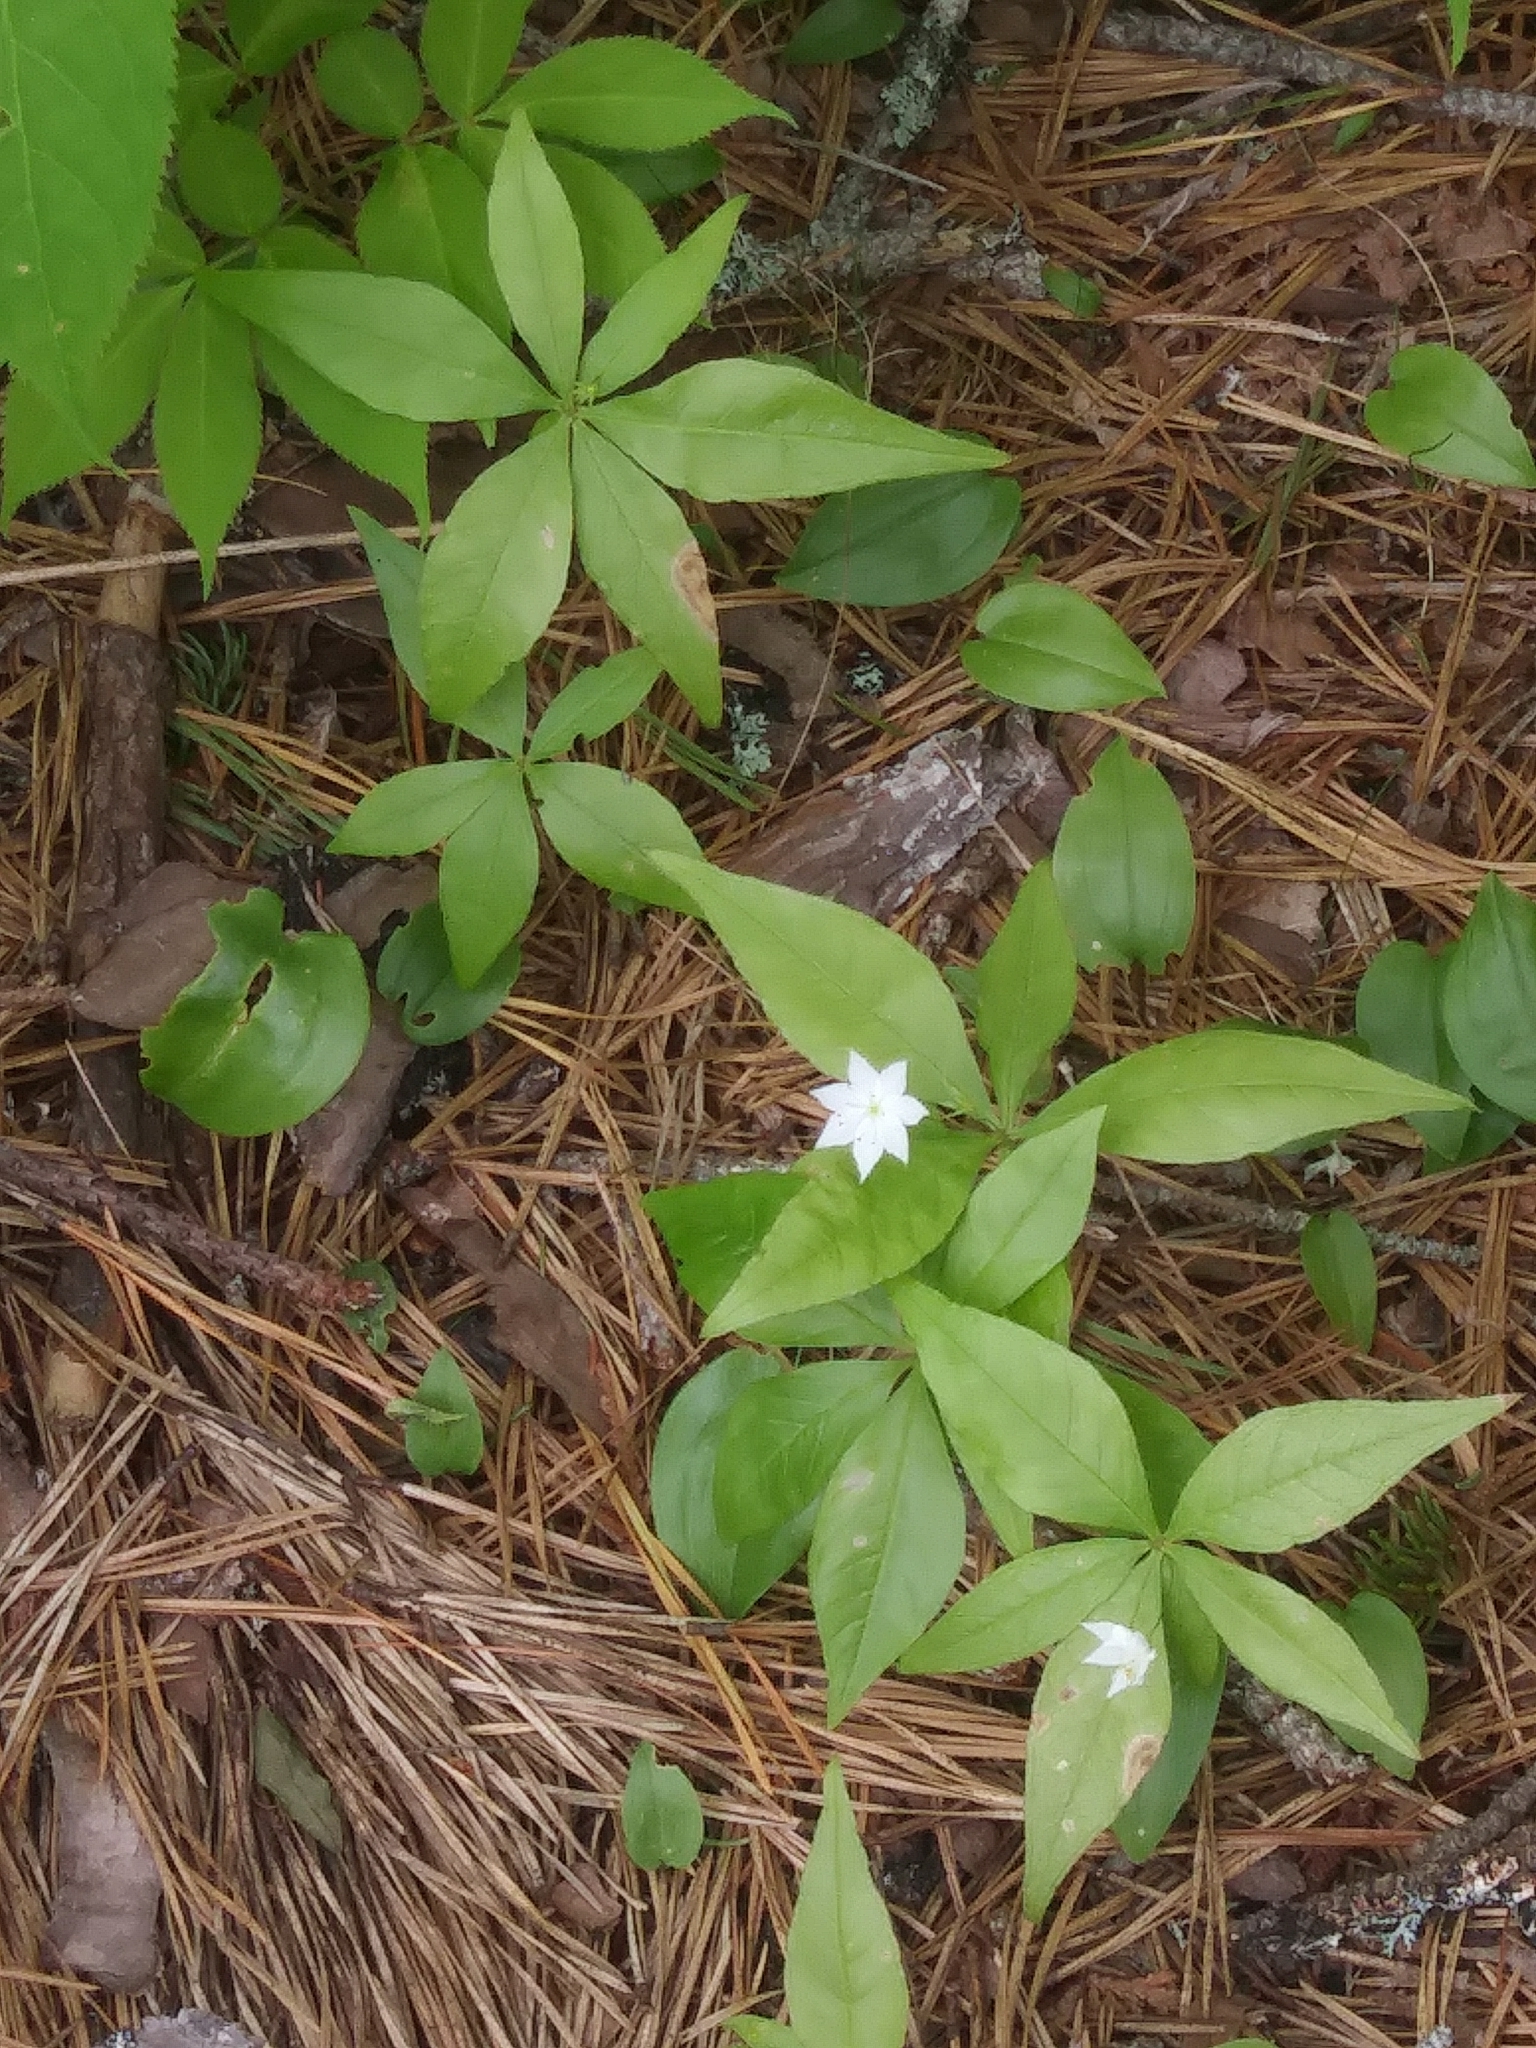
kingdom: Plantae
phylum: Tracheophyta
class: Magnoliopsida
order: Ericales
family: Primulaceae
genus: Lysimachia
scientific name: Lysimachia borealis
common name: American starflower
